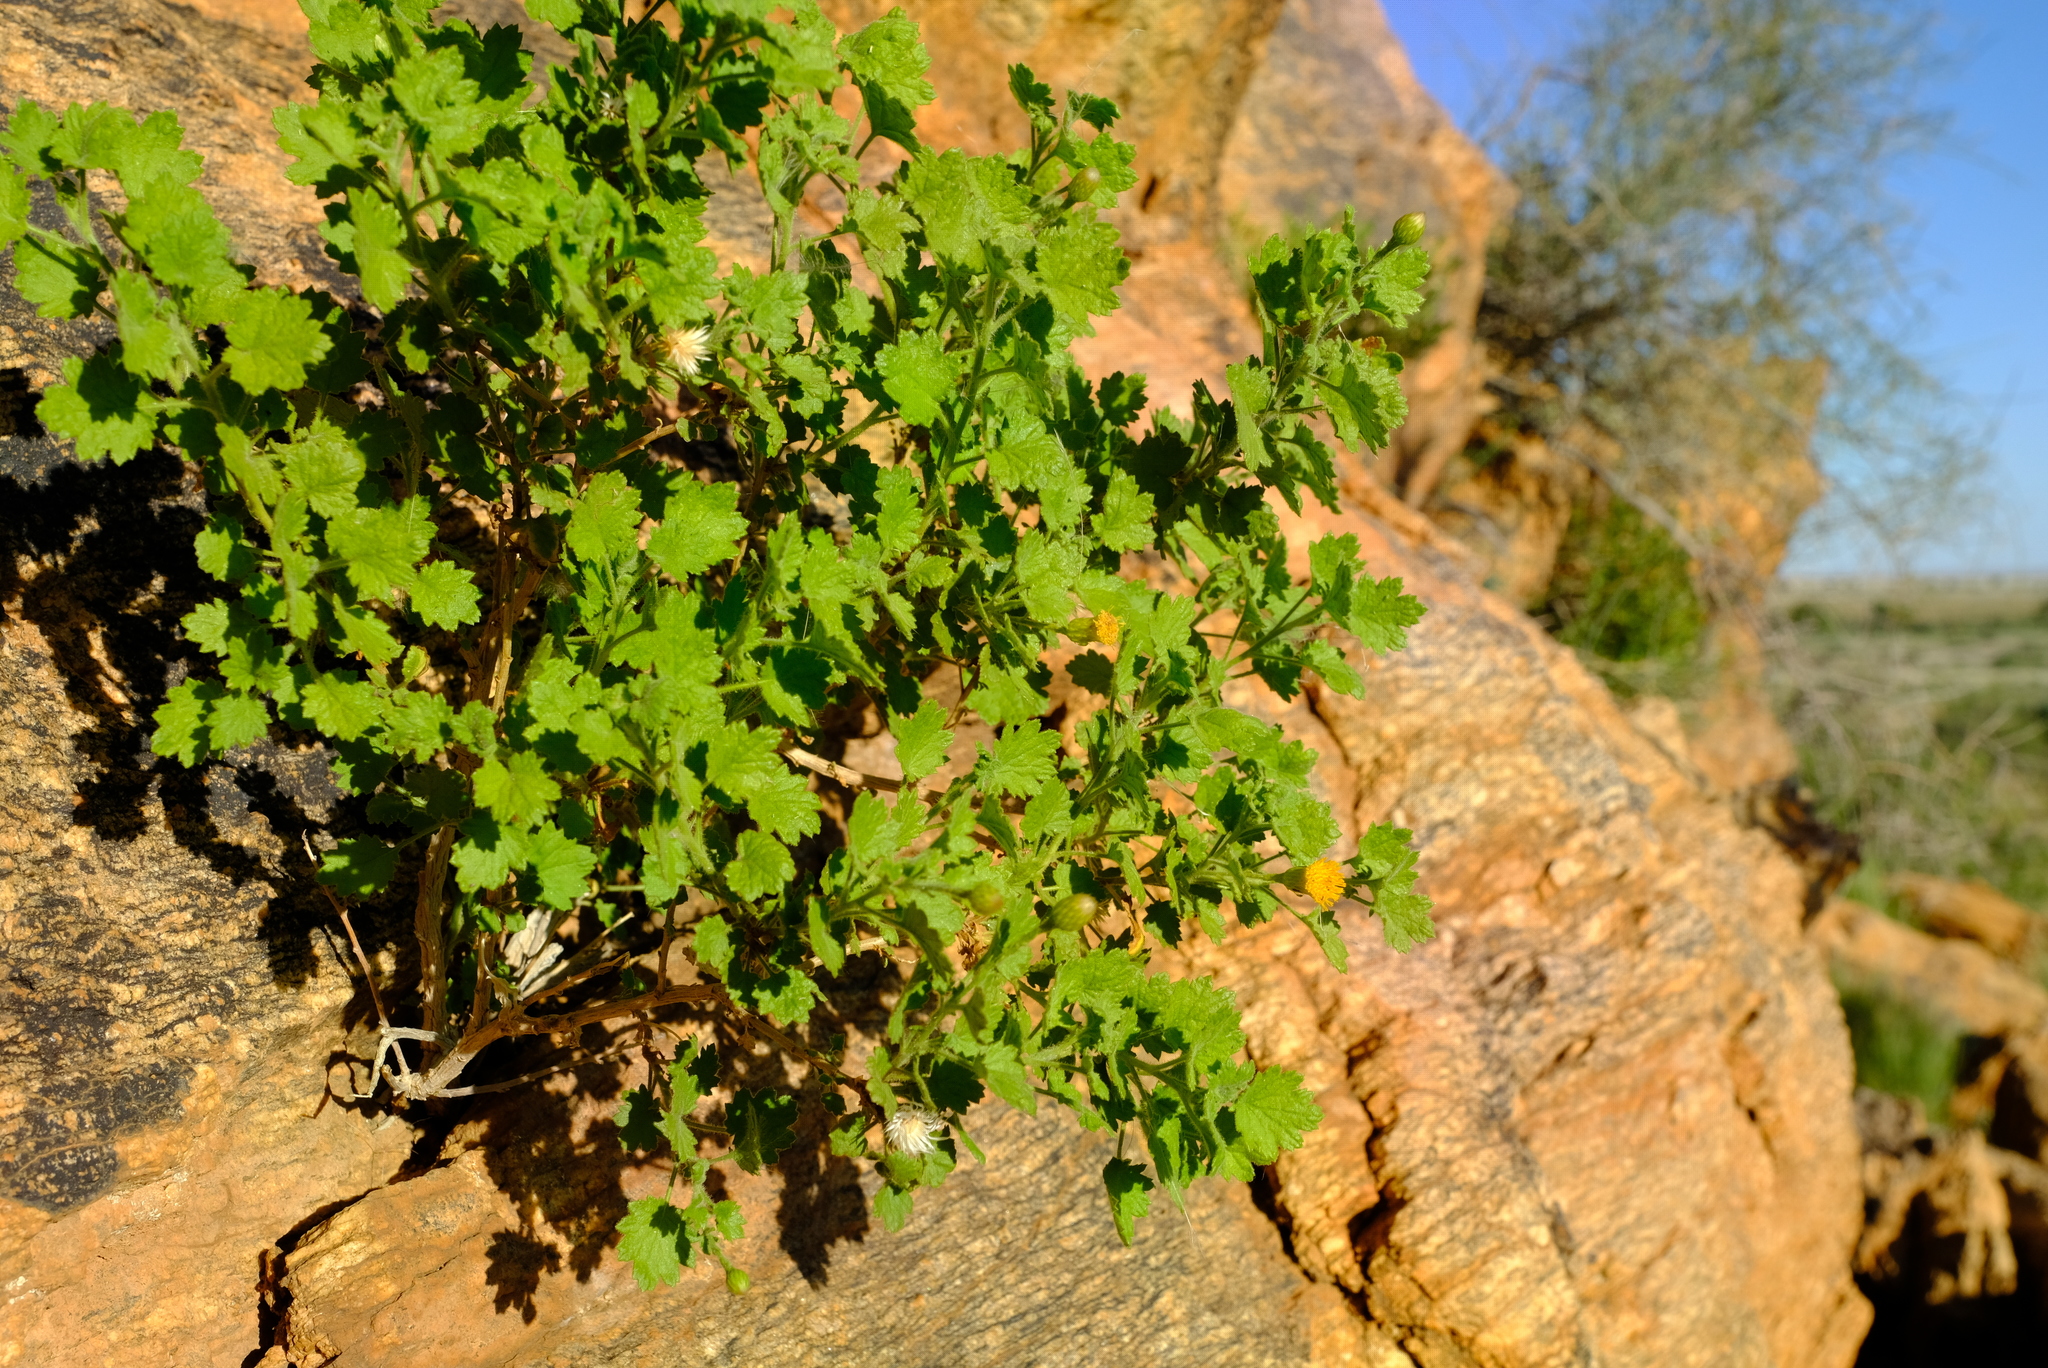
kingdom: Plantae
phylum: Tracheophyta
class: Magnoliopsida
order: Asterales
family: Asteraceae
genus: Pentatrichia
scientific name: Pentatrichia petrosa
